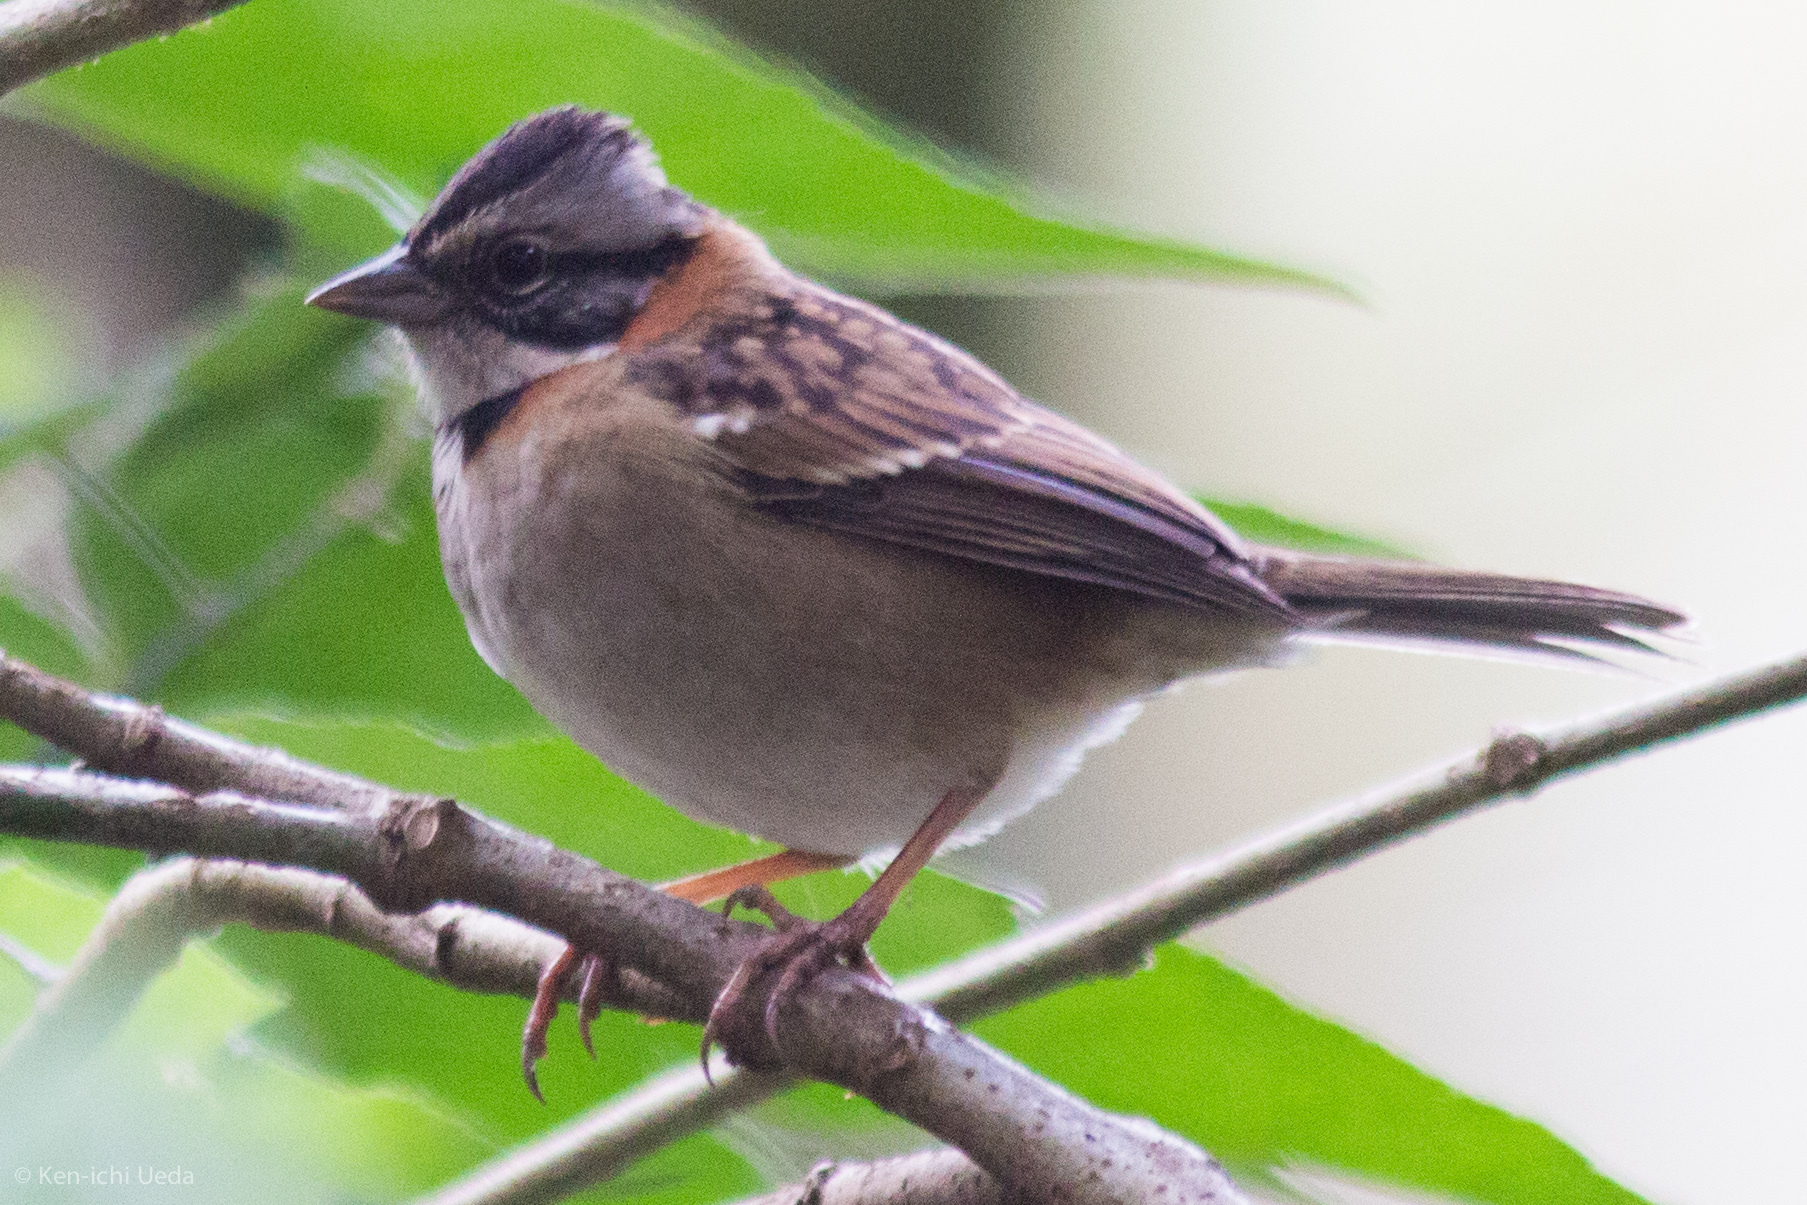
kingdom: Animalia
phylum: Chordata
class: Aves
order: Passeriformes
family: Passerellidae
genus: Zonotrichia
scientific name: Zonotrichia capensis
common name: Rufous-collared sparrow
